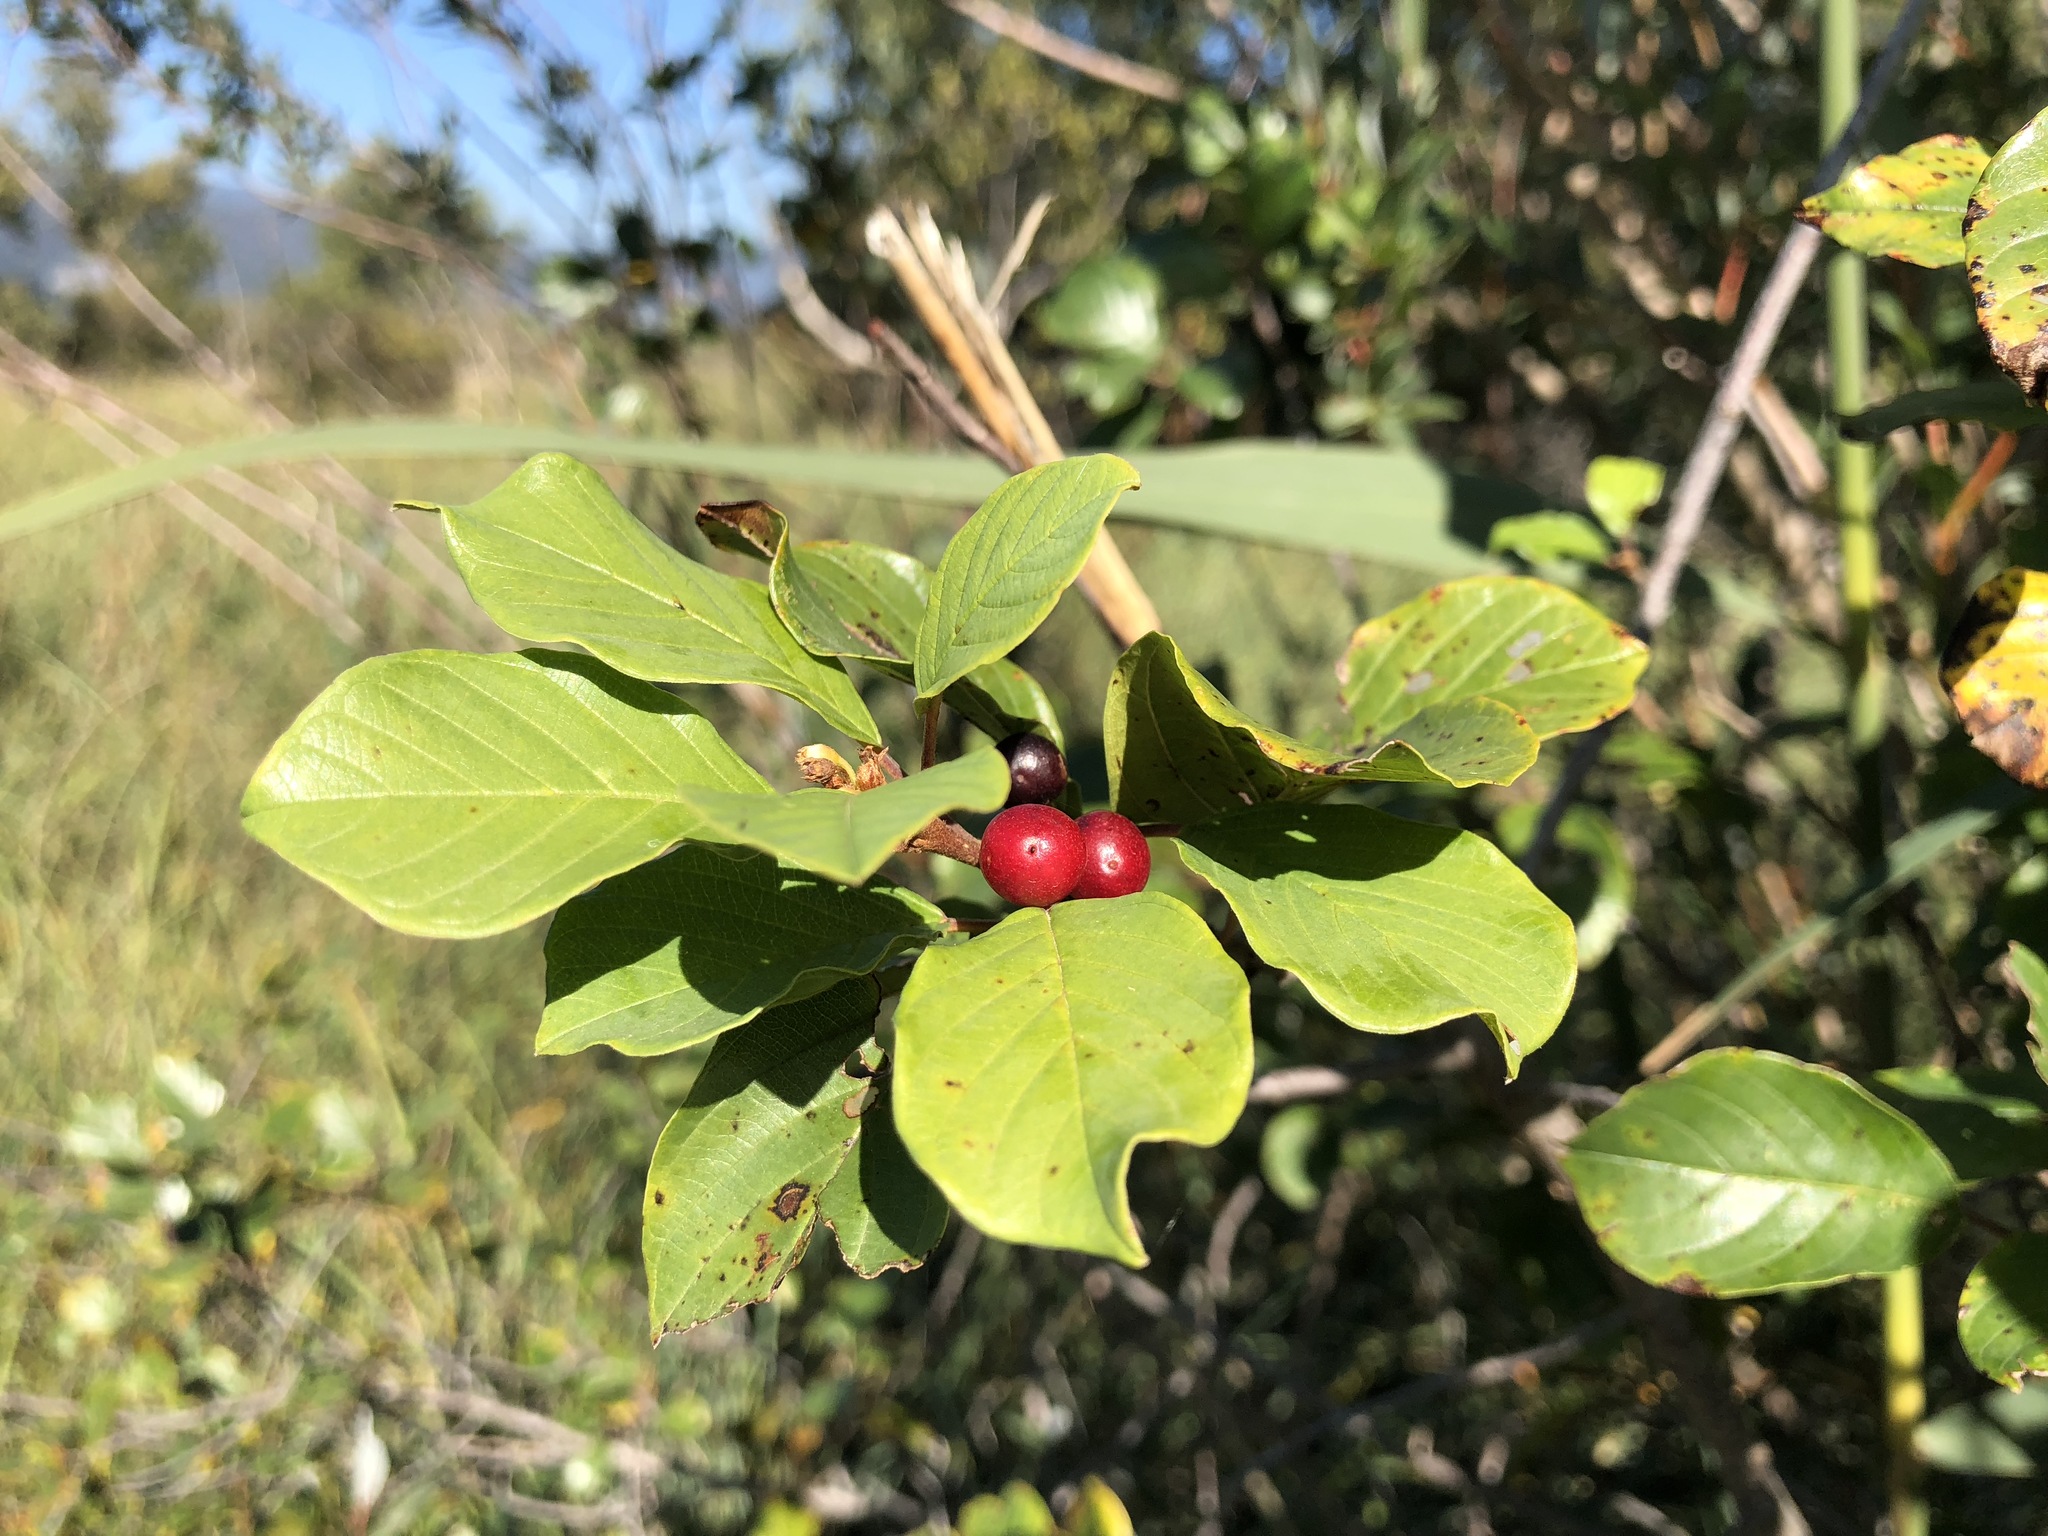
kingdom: Plantae
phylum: Tracheophyta
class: Magnoliopsida
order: Rosales
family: Rhamnaceae
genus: Frangula
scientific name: Frangula alnus
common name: Alder buckthorn
